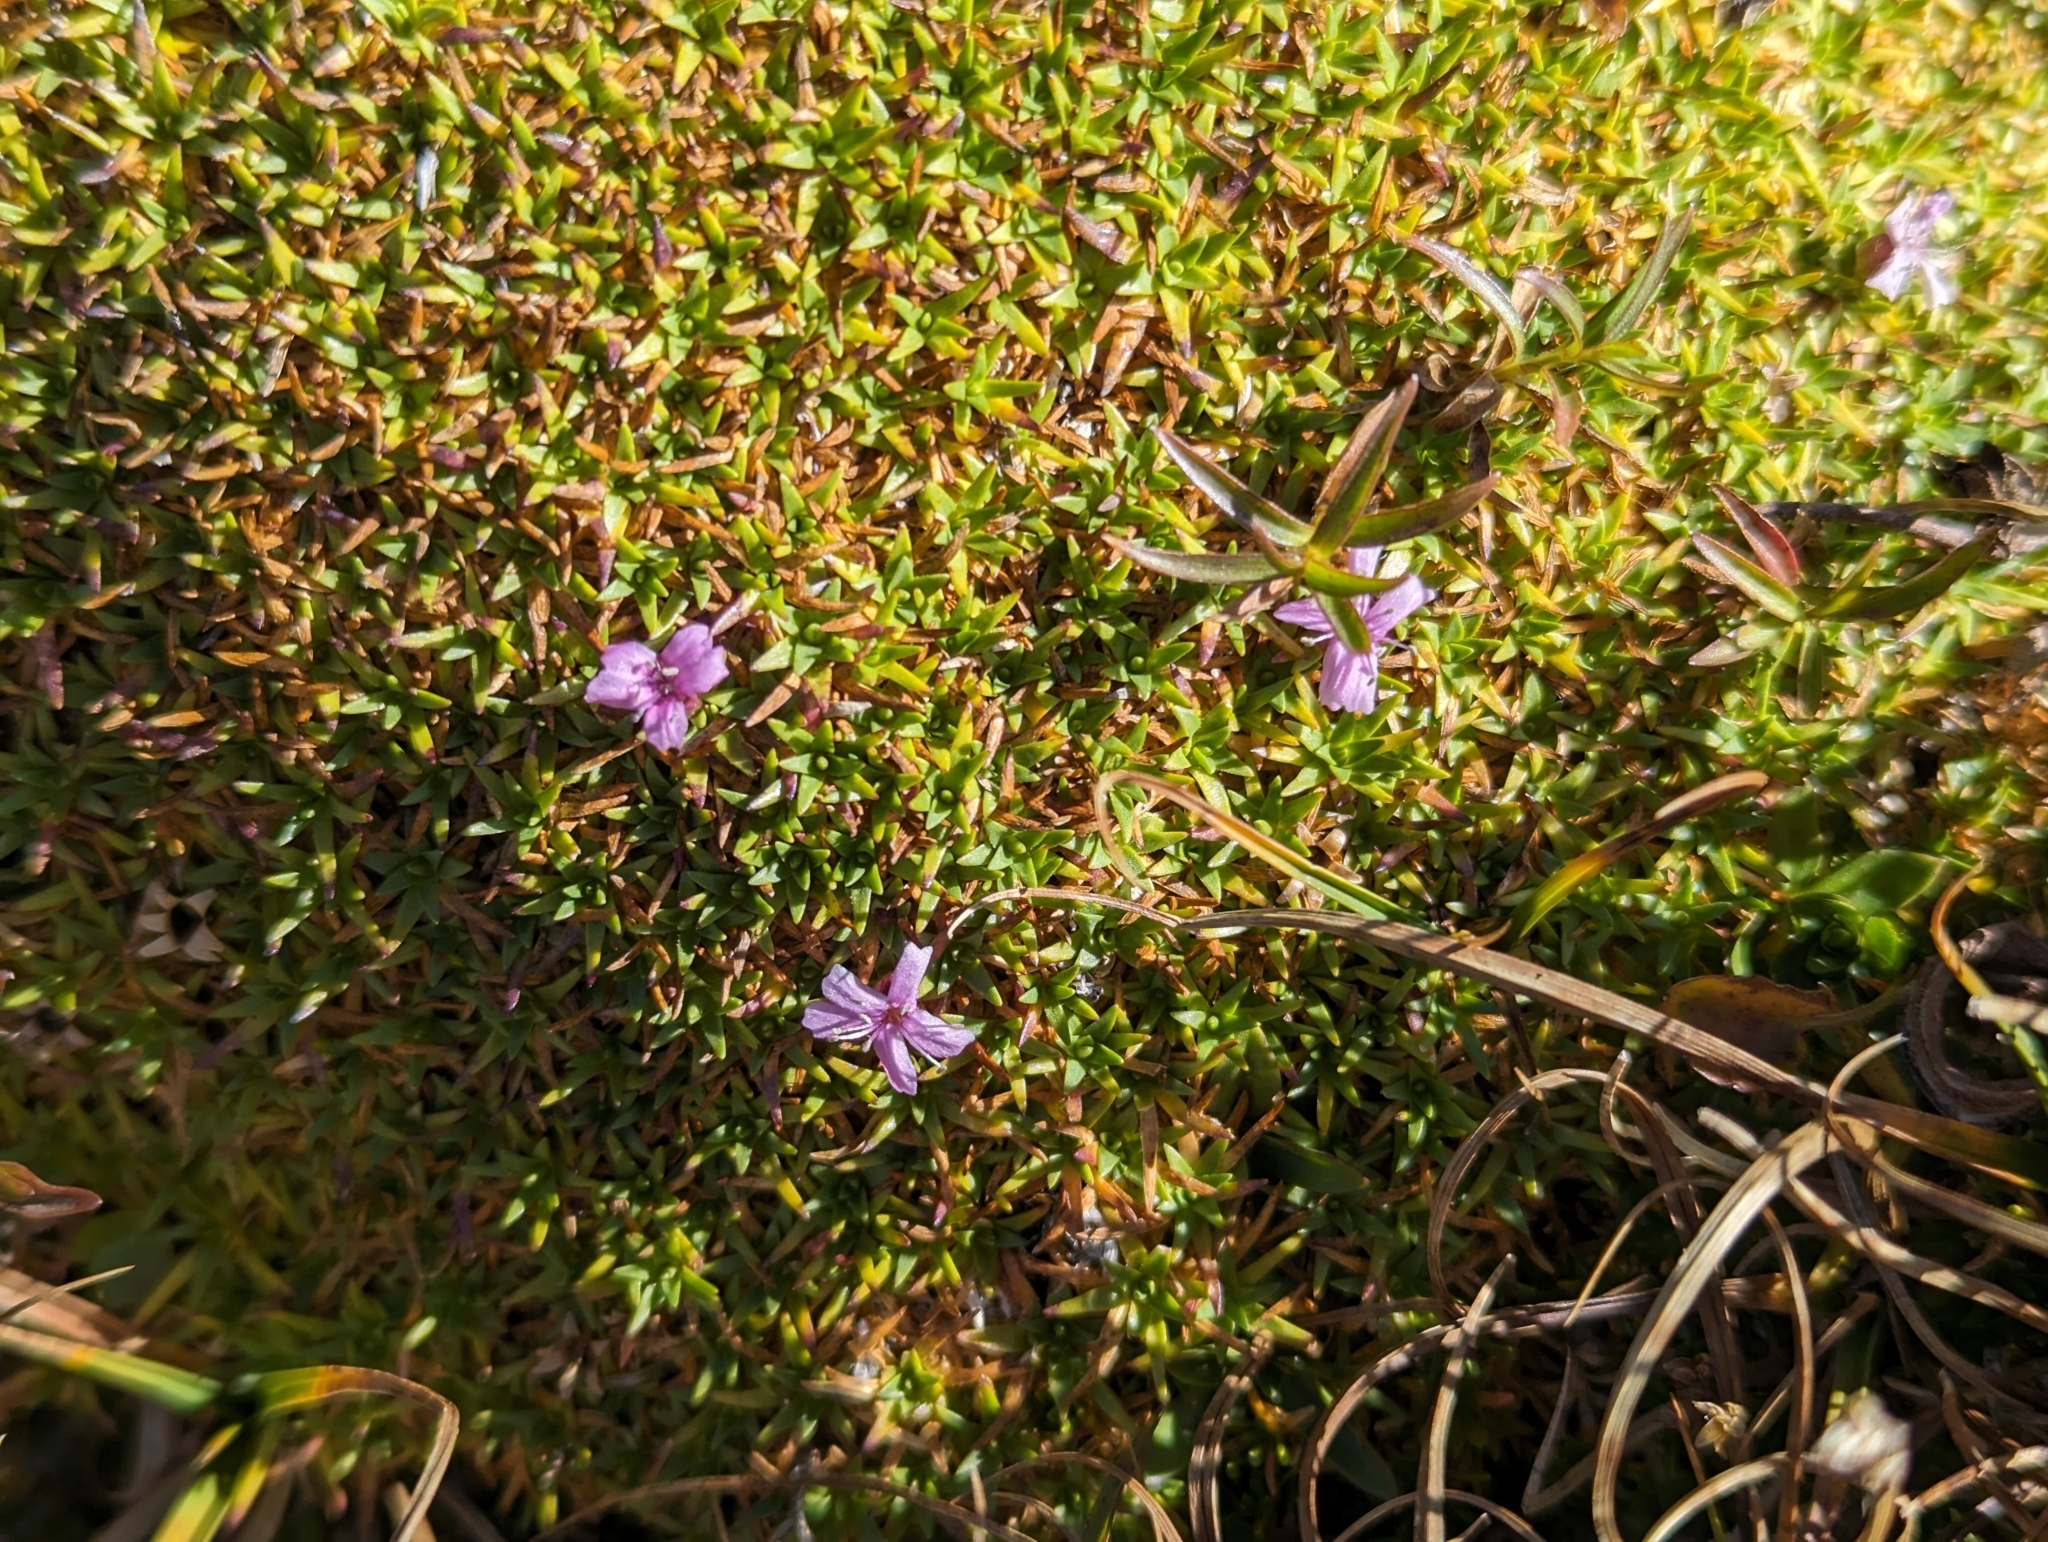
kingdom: Plantae
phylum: Tracheophyta
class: Magnoliopsida
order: Caryophyllales
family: Caryophyllaceae
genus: Silene
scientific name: Silene acaulis
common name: Moss campion
